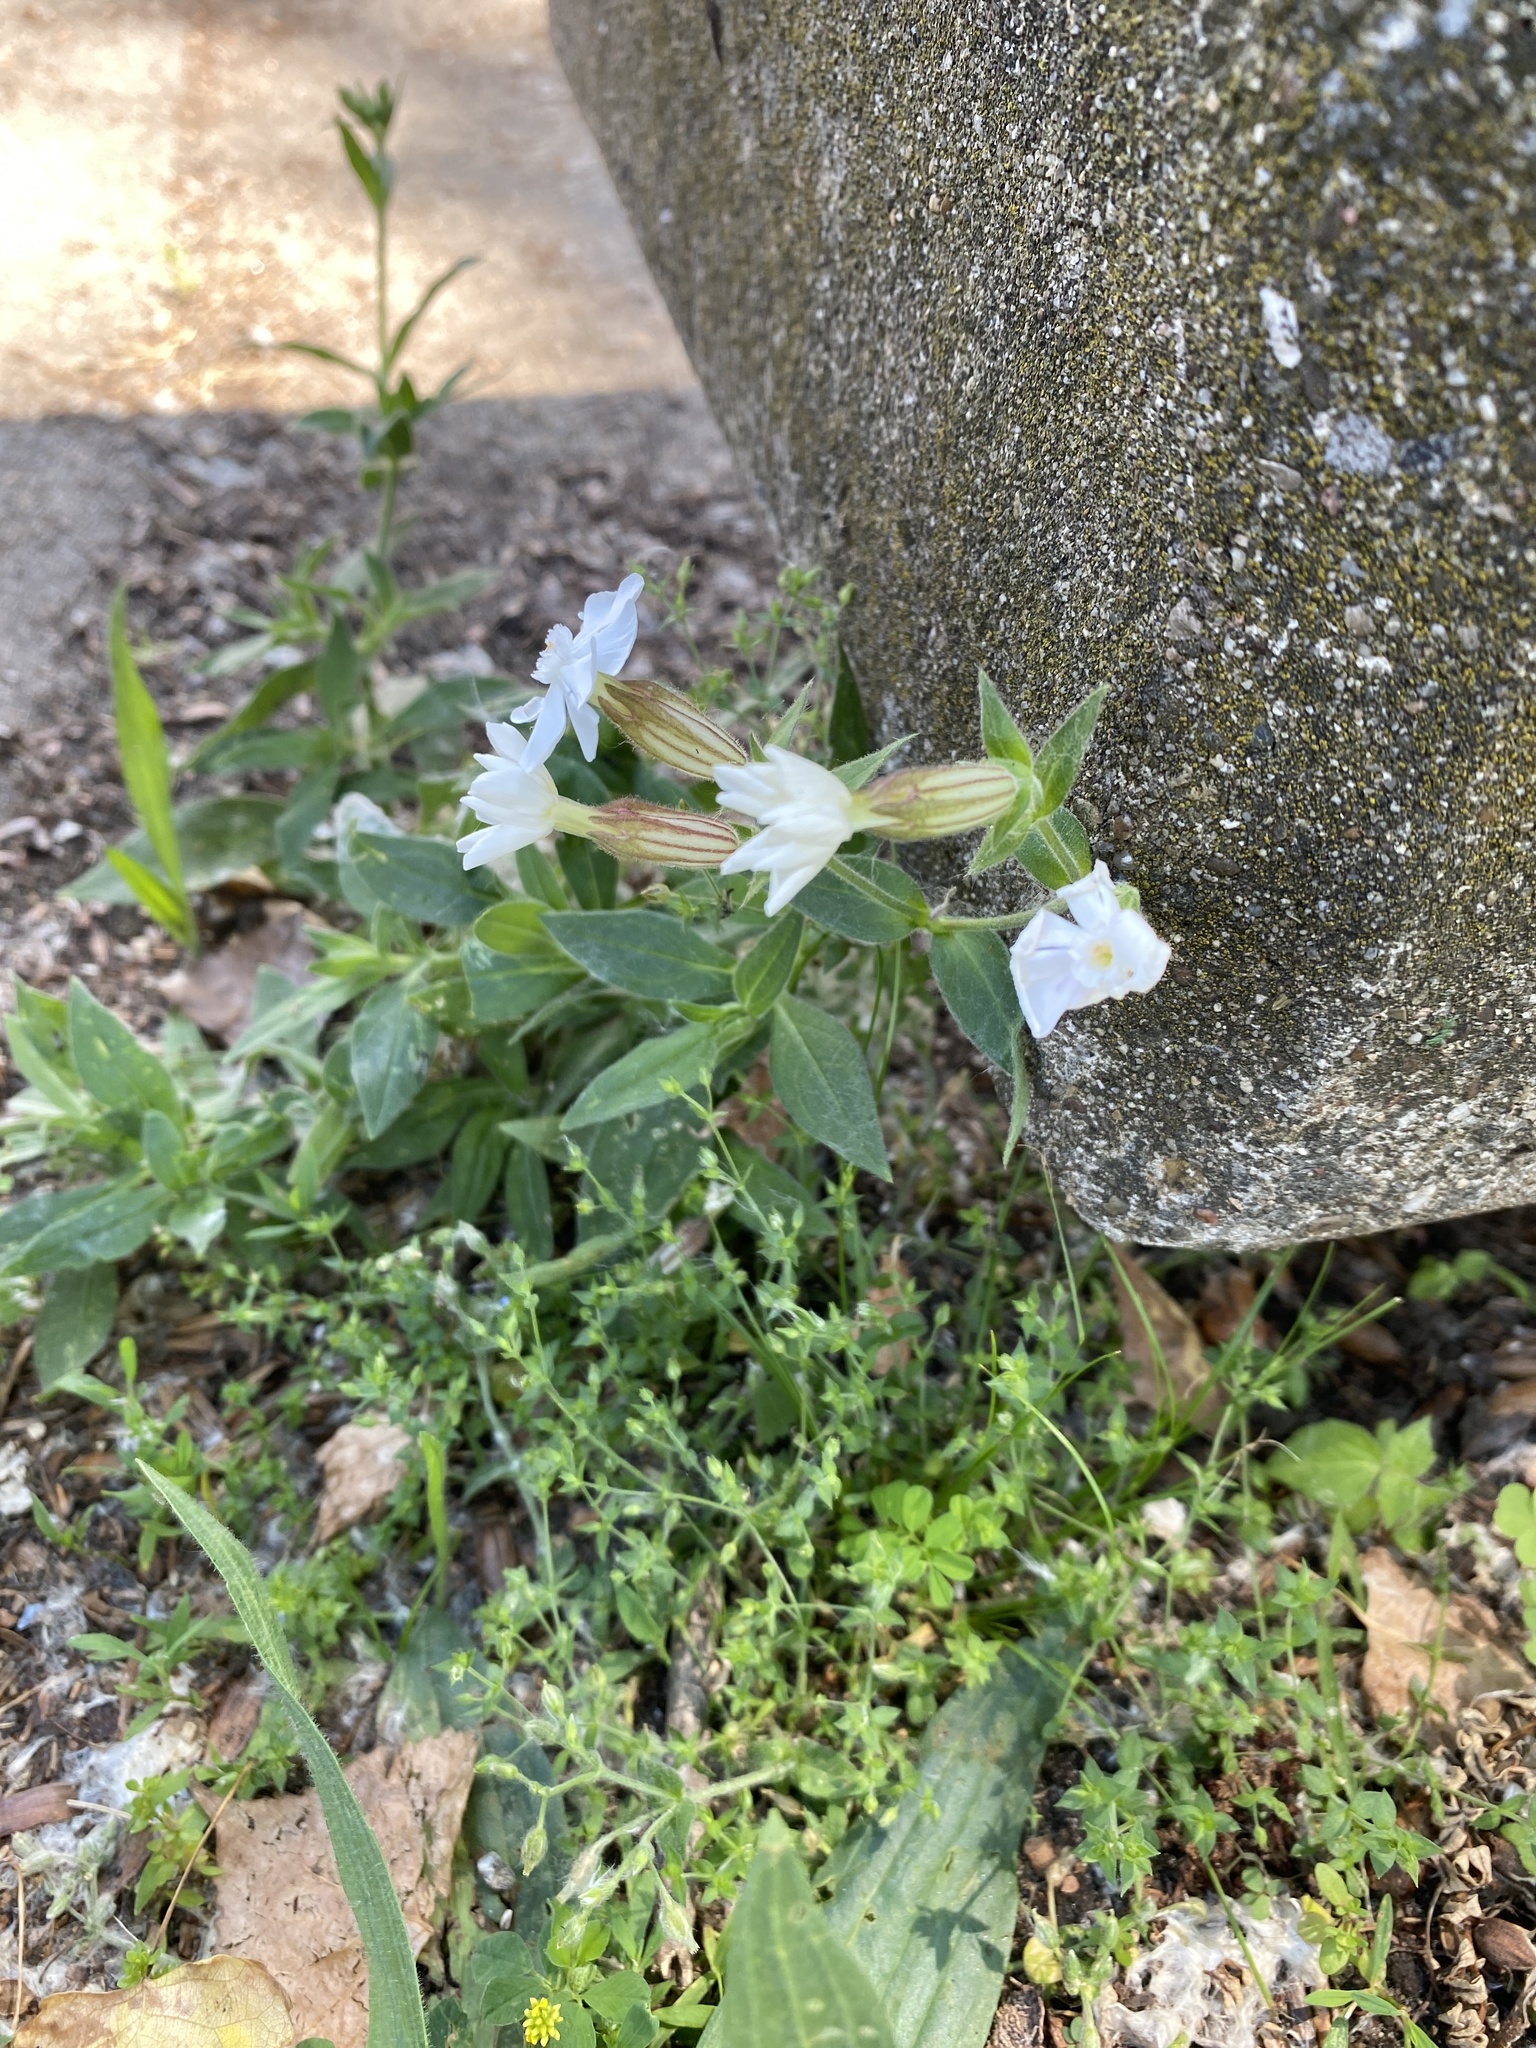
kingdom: Plantae
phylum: Tracheophyta
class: Magnoliopsida
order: Caryophyllales
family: Caryophyllaceae
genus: Silene
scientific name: Silene latifolia
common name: White campion
